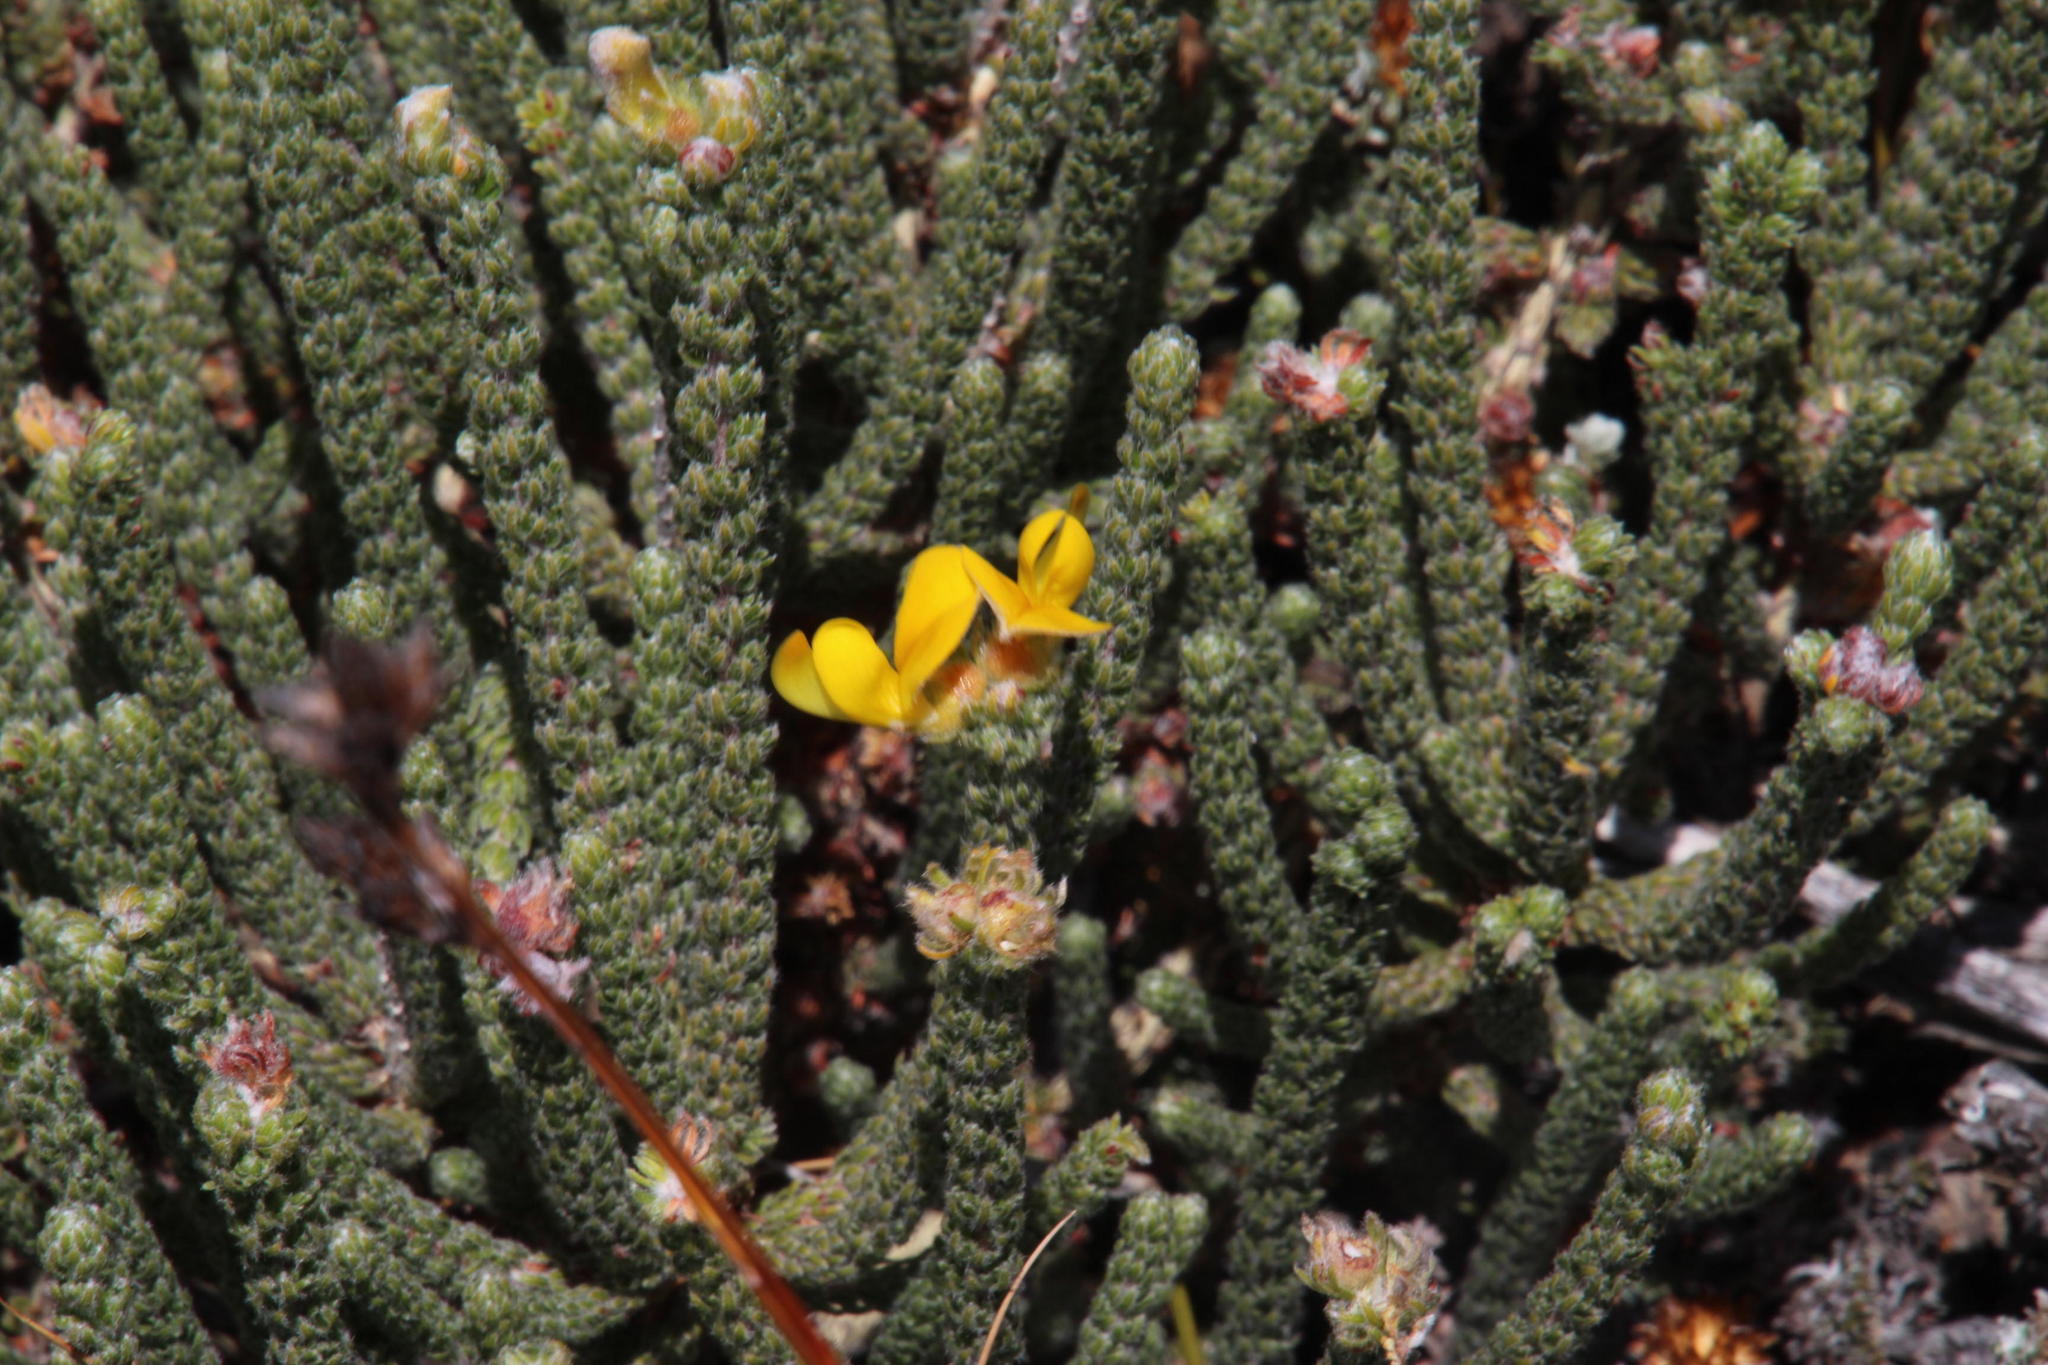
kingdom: Plantae
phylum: Tracheophyta
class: Magnoliopsida
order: Fabales
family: Fabaceae
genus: Aspalathus
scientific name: Aspalathus triquetra
